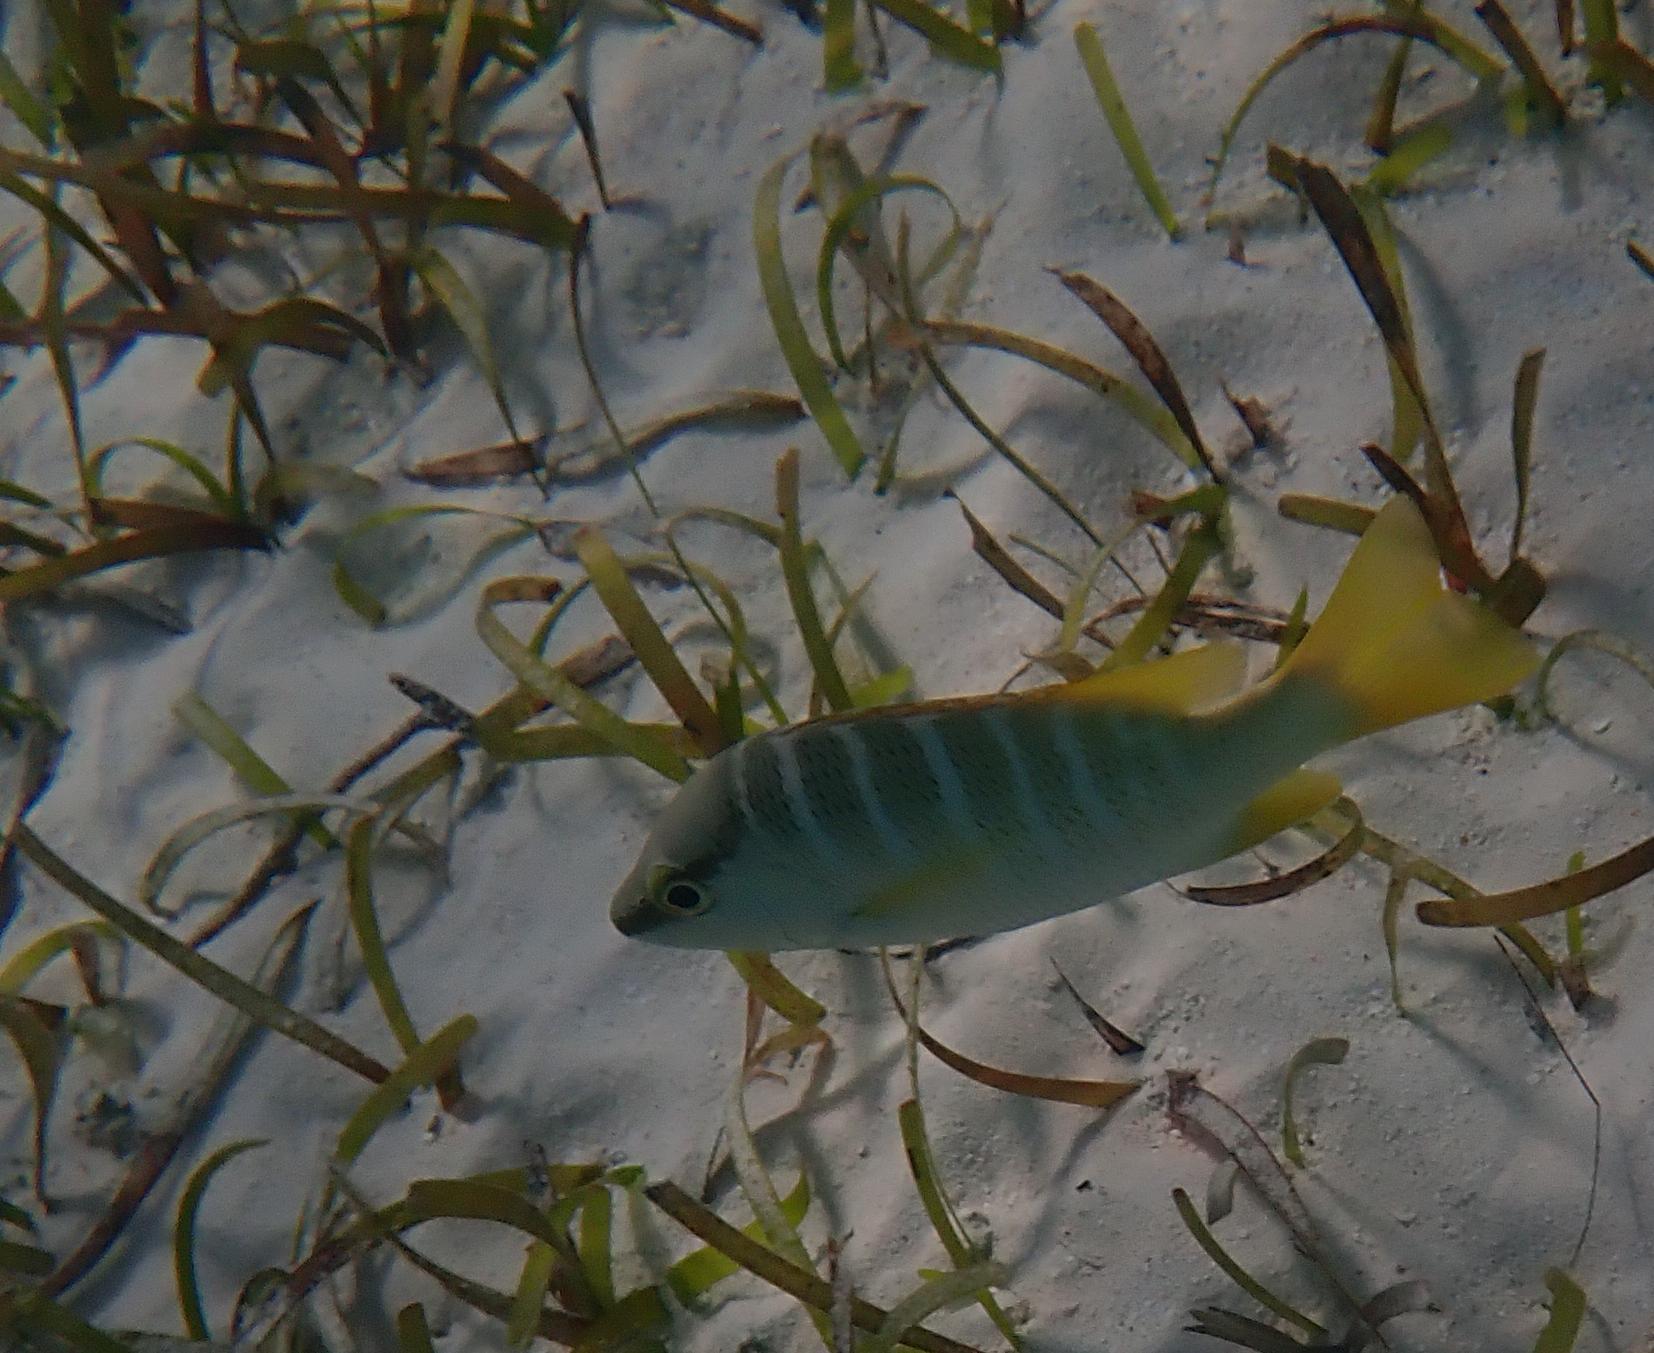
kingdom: Animalia
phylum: Chordata
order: Perciformes
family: Lutjanidae
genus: Lutjanus
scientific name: Lutjanus apodus
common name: Schoolmaster
